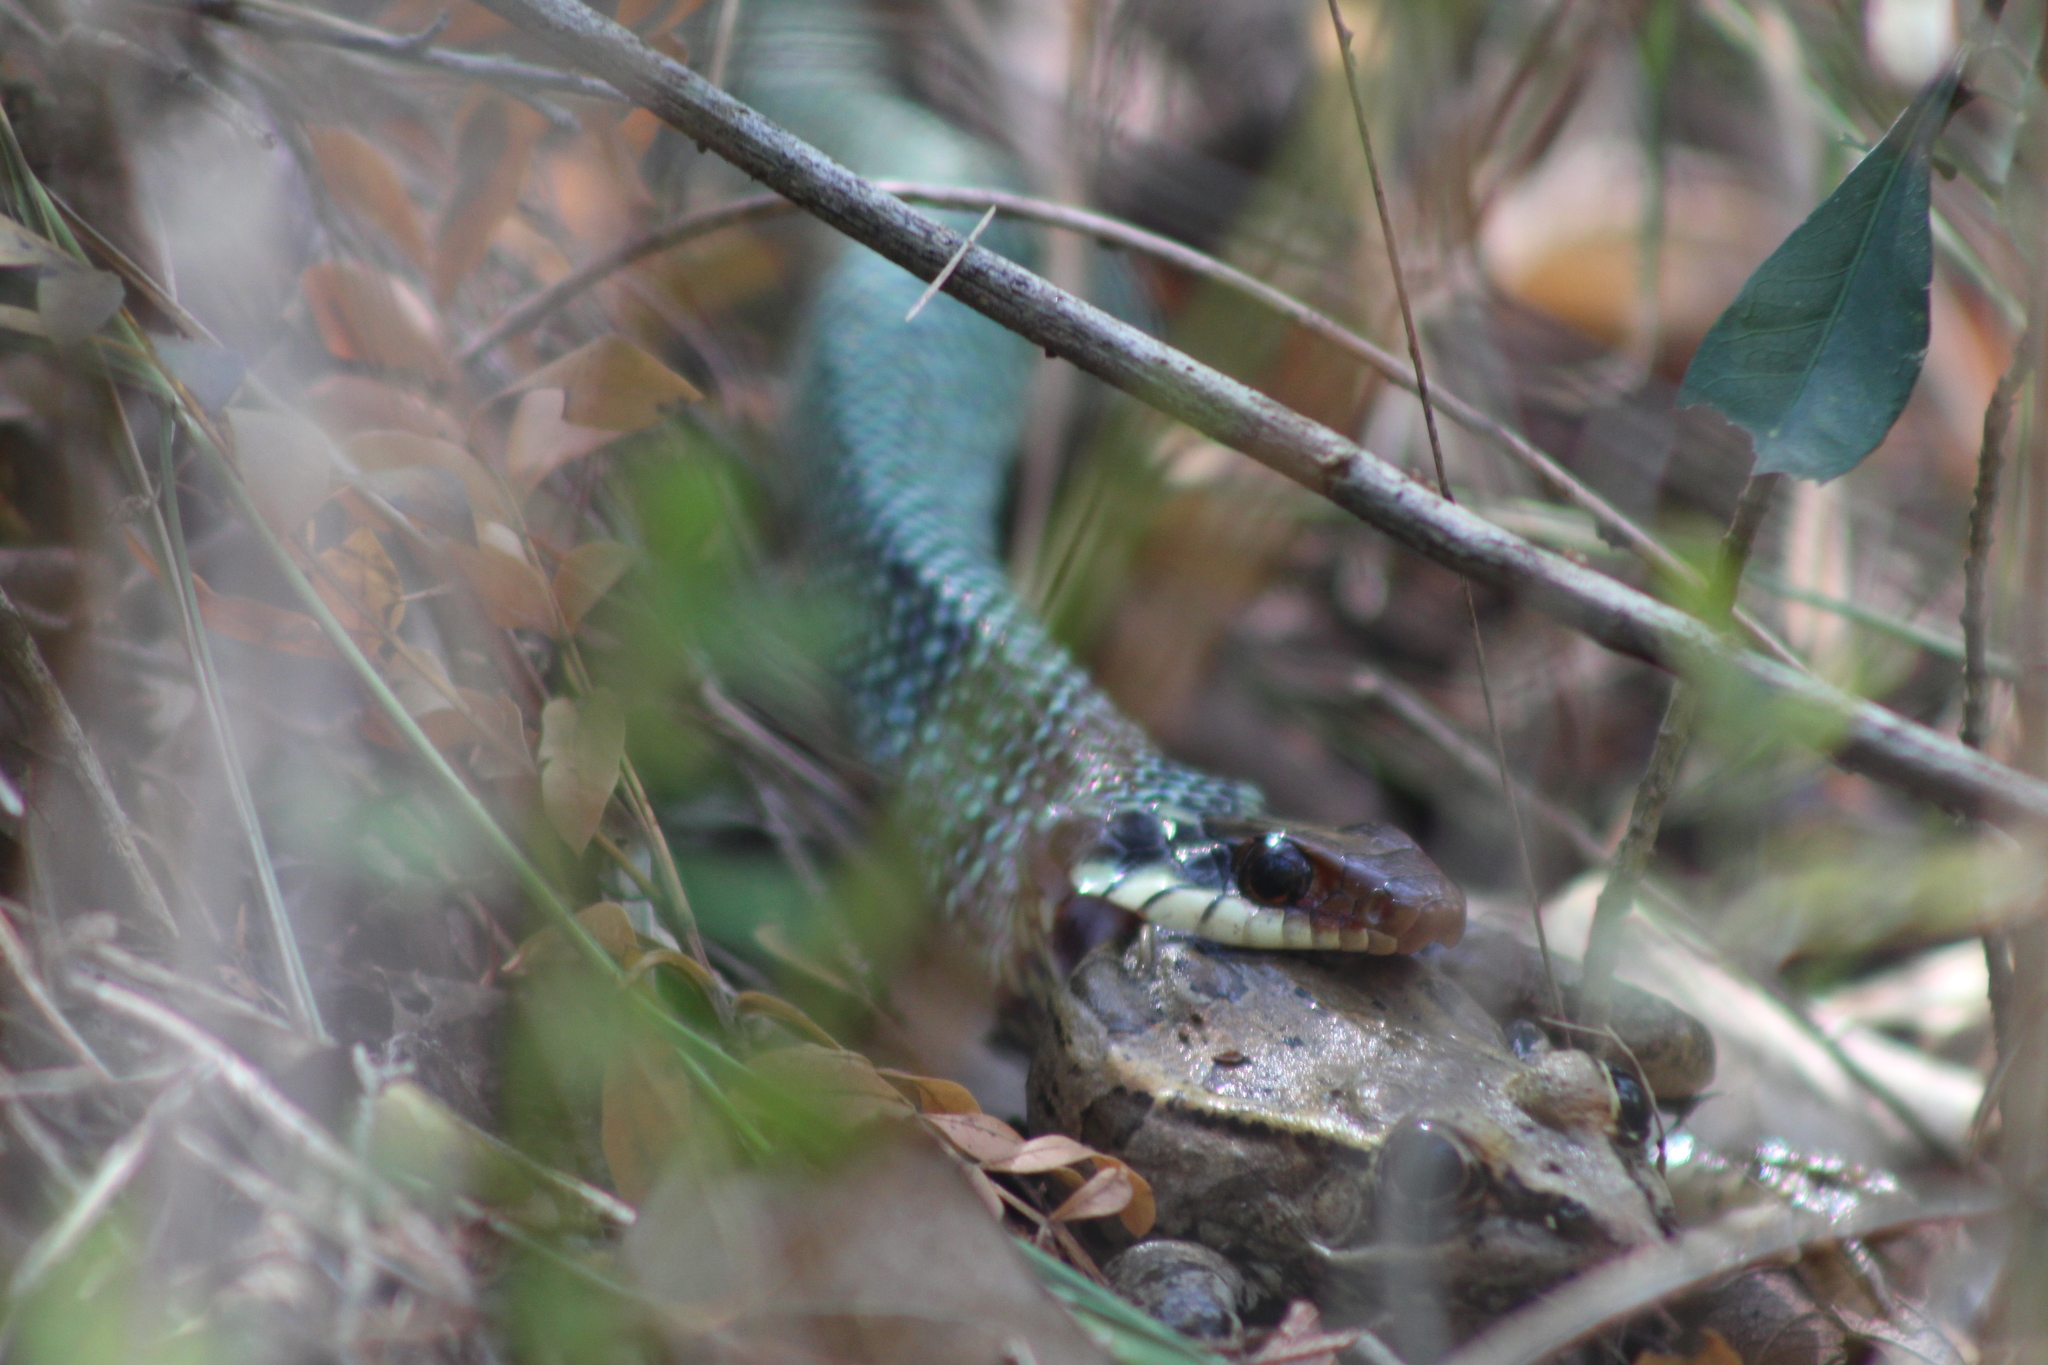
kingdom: Animalia
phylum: Chordata
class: Squamata
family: Colubridae
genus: Drymobius
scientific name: Drymobius margaritiferus
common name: Central american speckled racer
